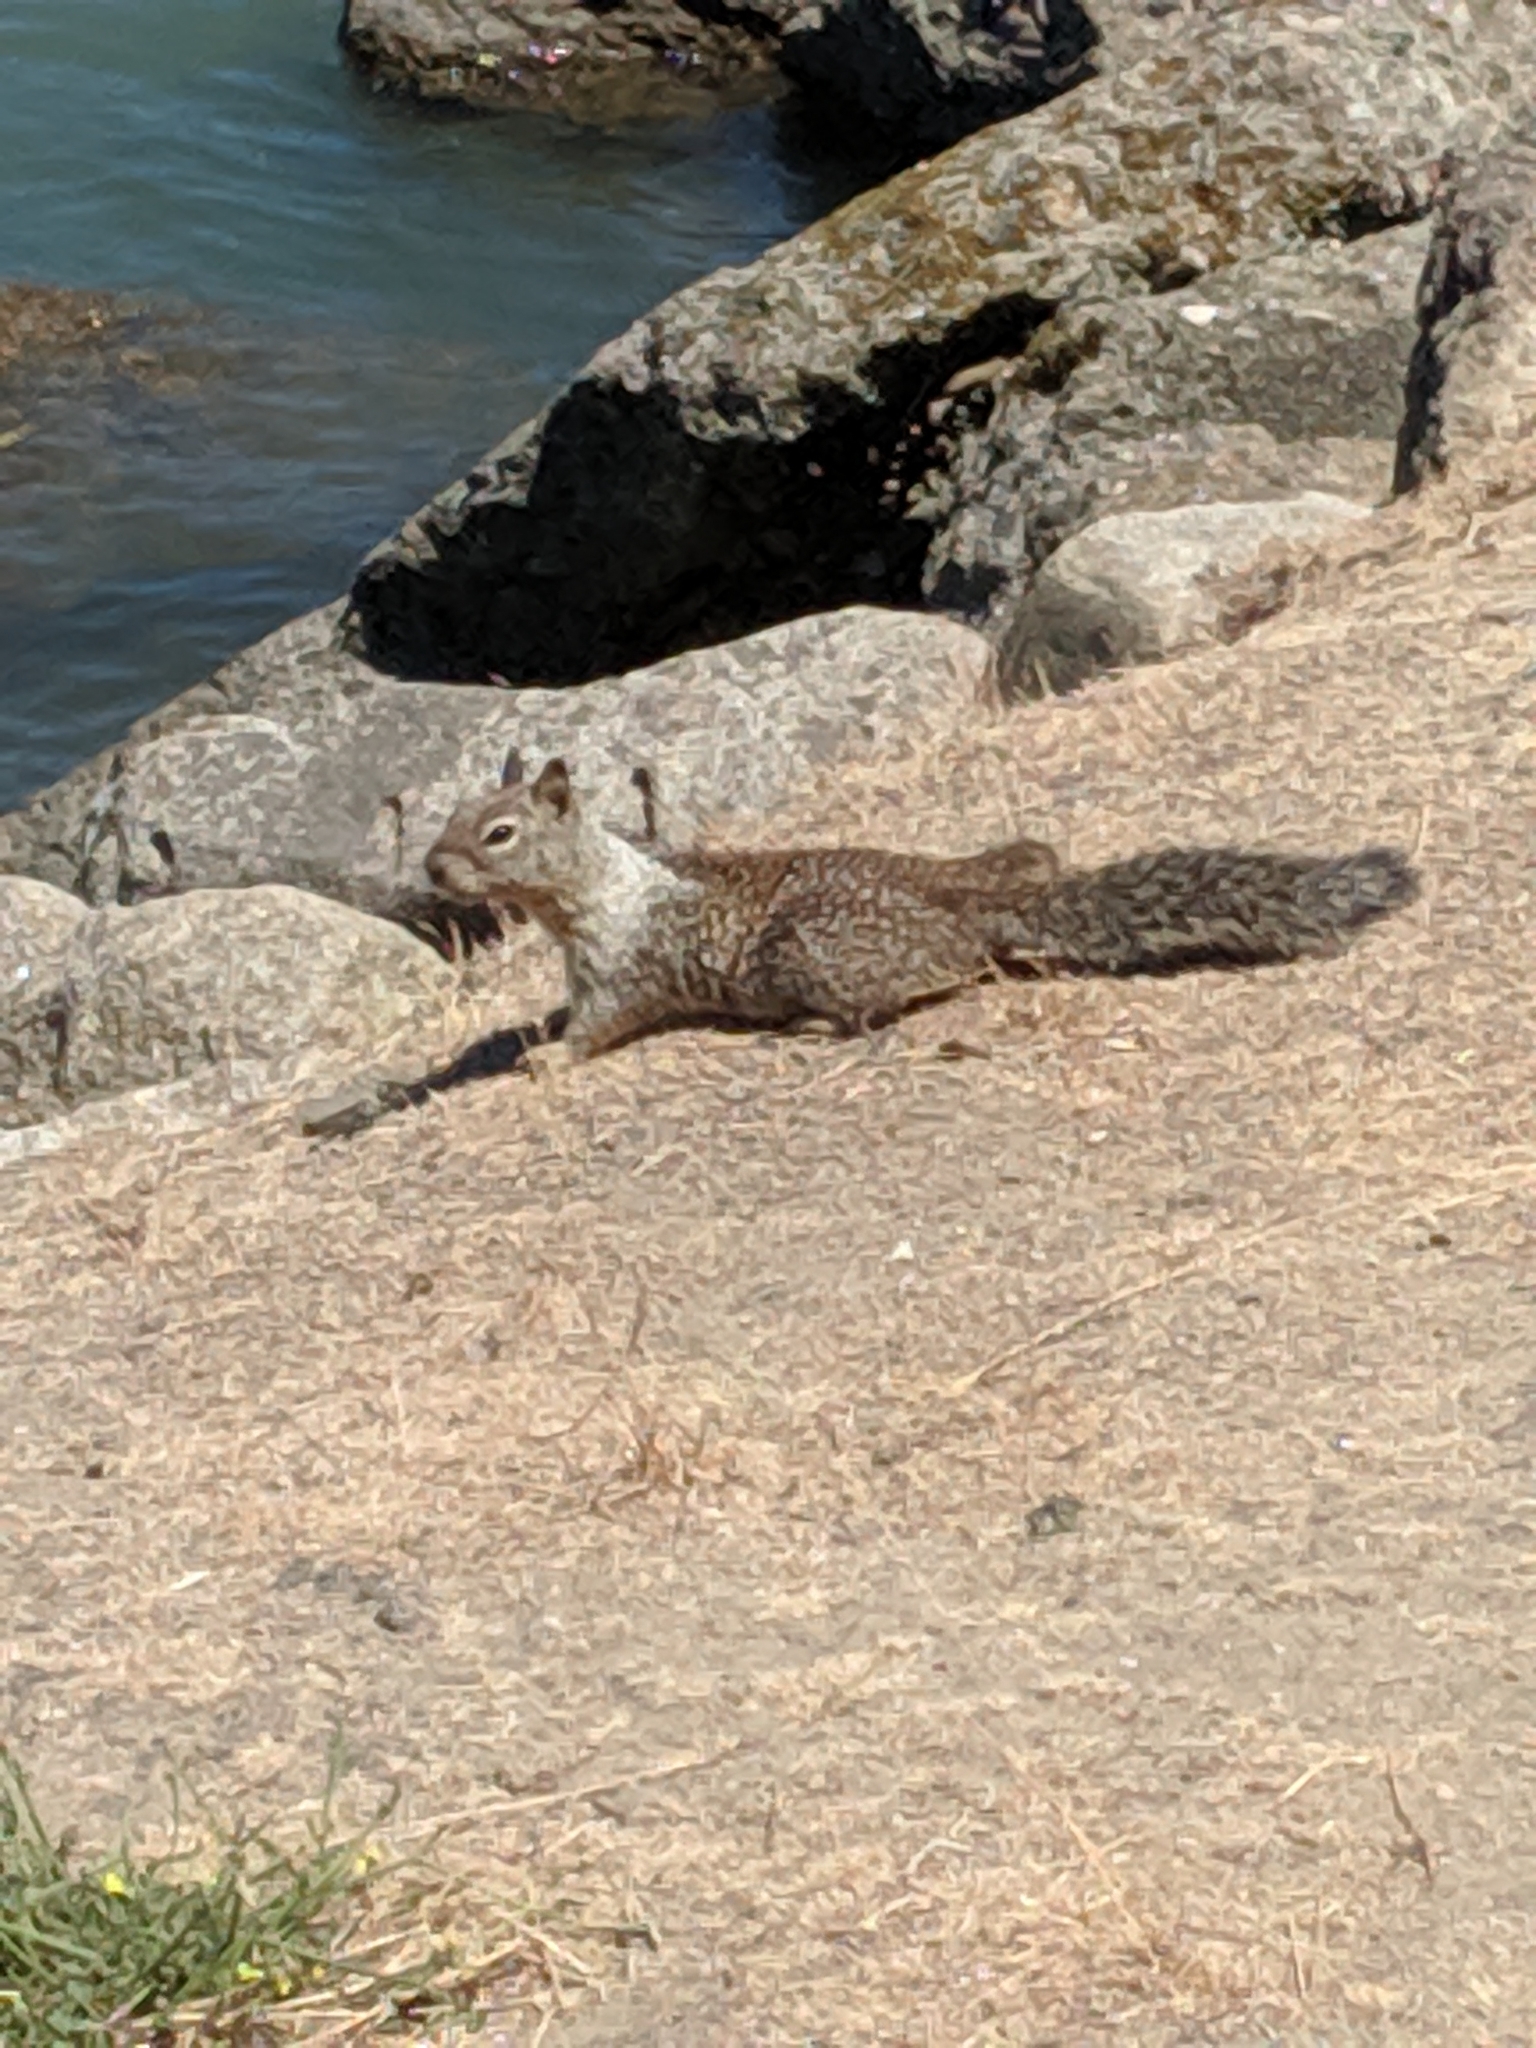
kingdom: Animalia
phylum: Chordata
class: Mammalia
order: Rodentia
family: Sciuridae
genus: Otospermophilus
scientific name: Otospermophilus beecheyi
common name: California ground squirrel
